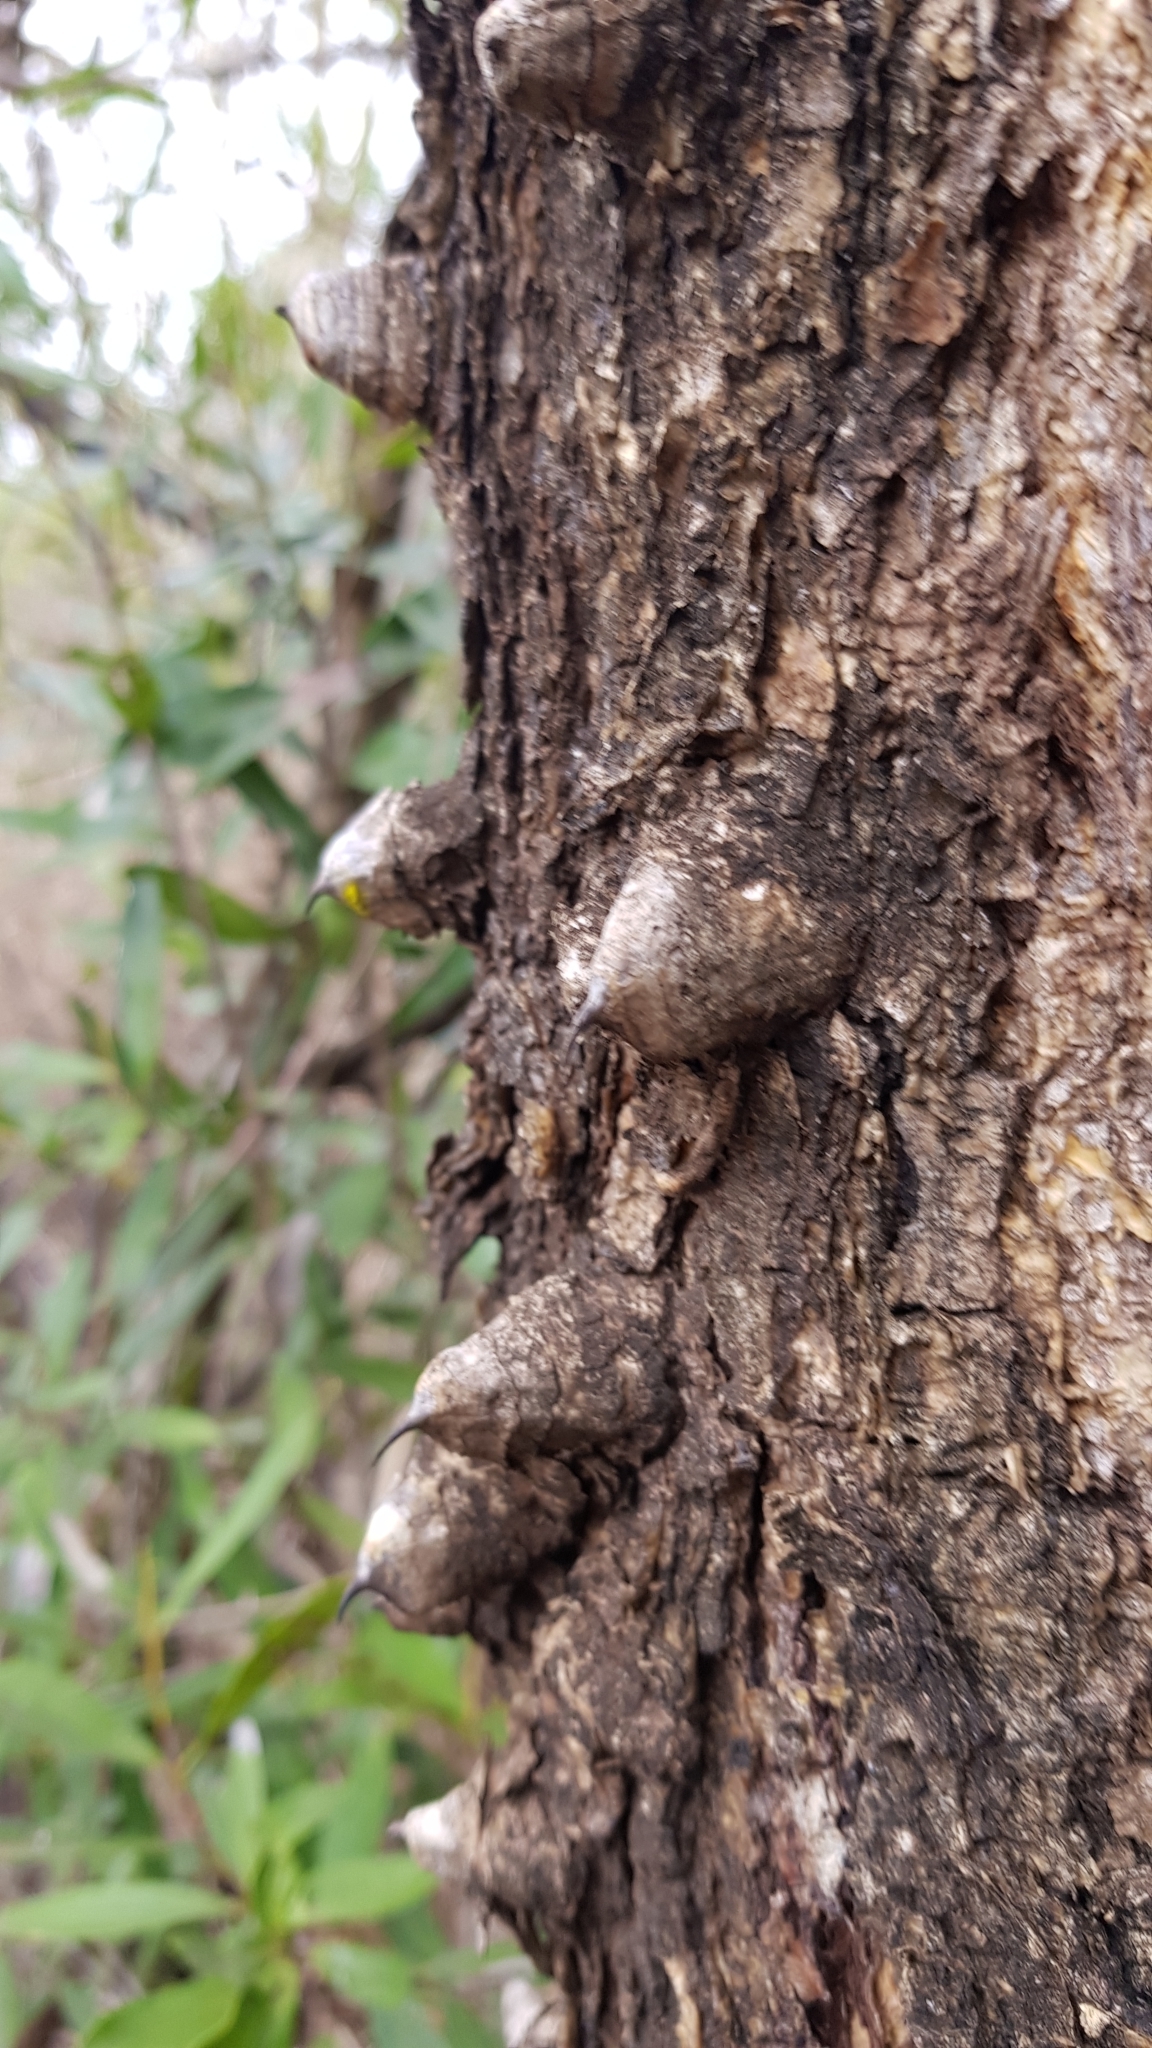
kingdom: Plantae
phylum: Tracheophyta
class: Magnoliopsida
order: Fabales
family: Fabaceae
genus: Senegalia
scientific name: Senegalia nigrescens
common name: Knobthorn
